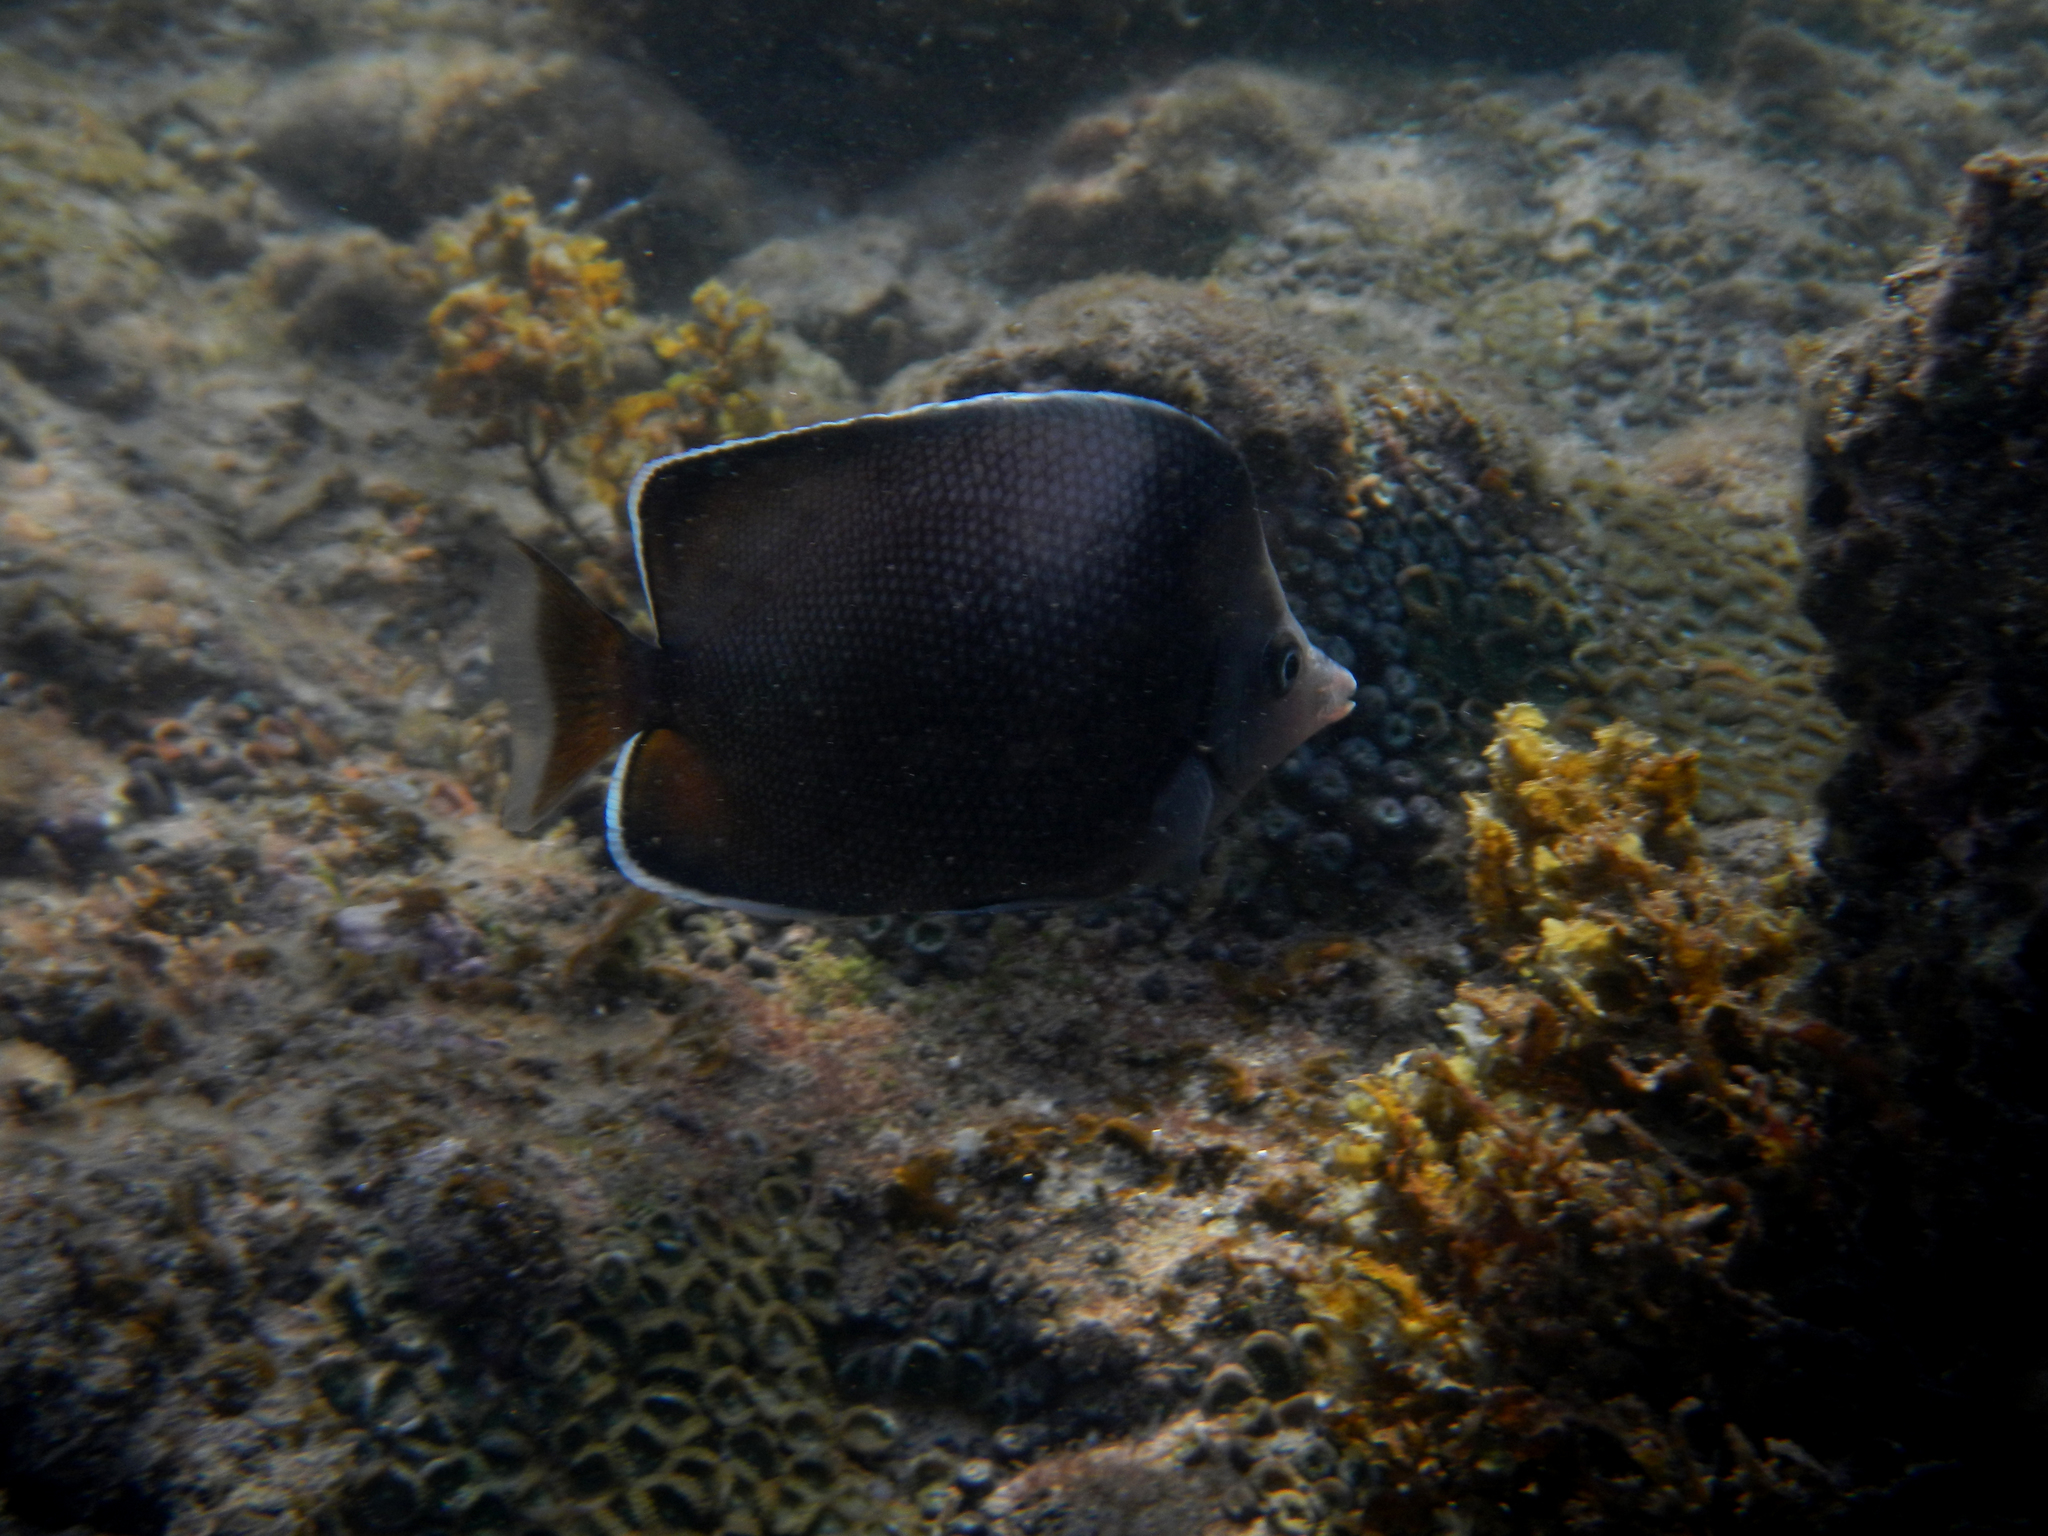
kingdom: Animalia
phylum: Chordata
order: Perciformes
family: Chaetodontidae
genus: Chaetodon
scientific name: Chaetodon litus
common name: Easter island butterflyfish
